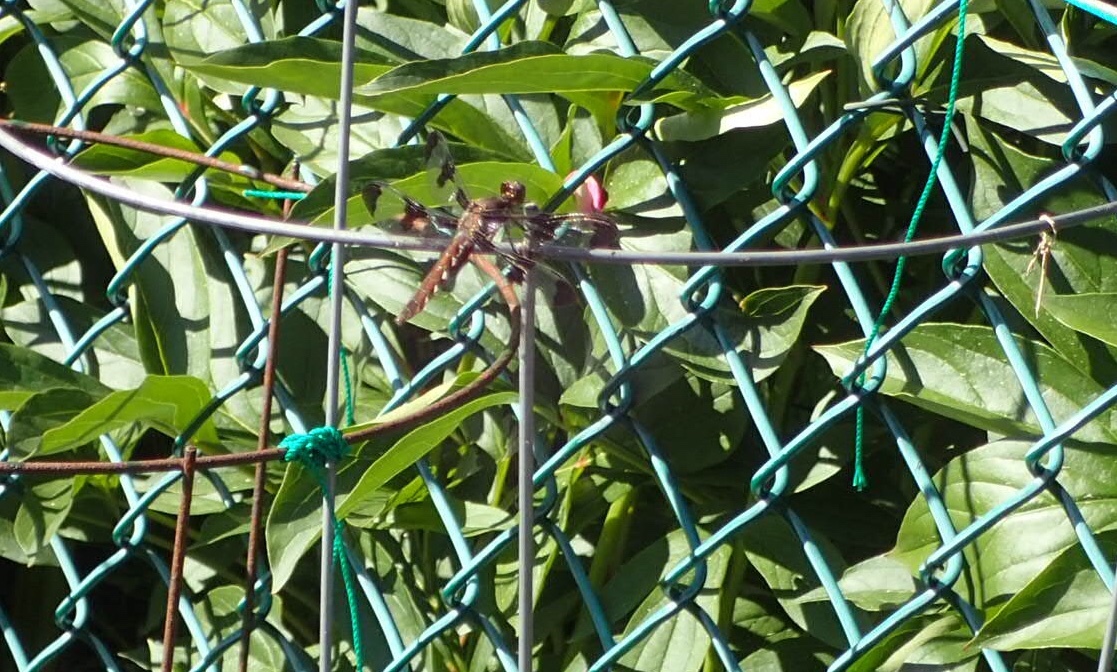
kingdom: Animalia
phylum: Arthropoda
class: Insecta
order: Odonata
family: Libellulidae
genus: Plathemis
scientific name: Plathemis lydia
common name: Common whitetail
